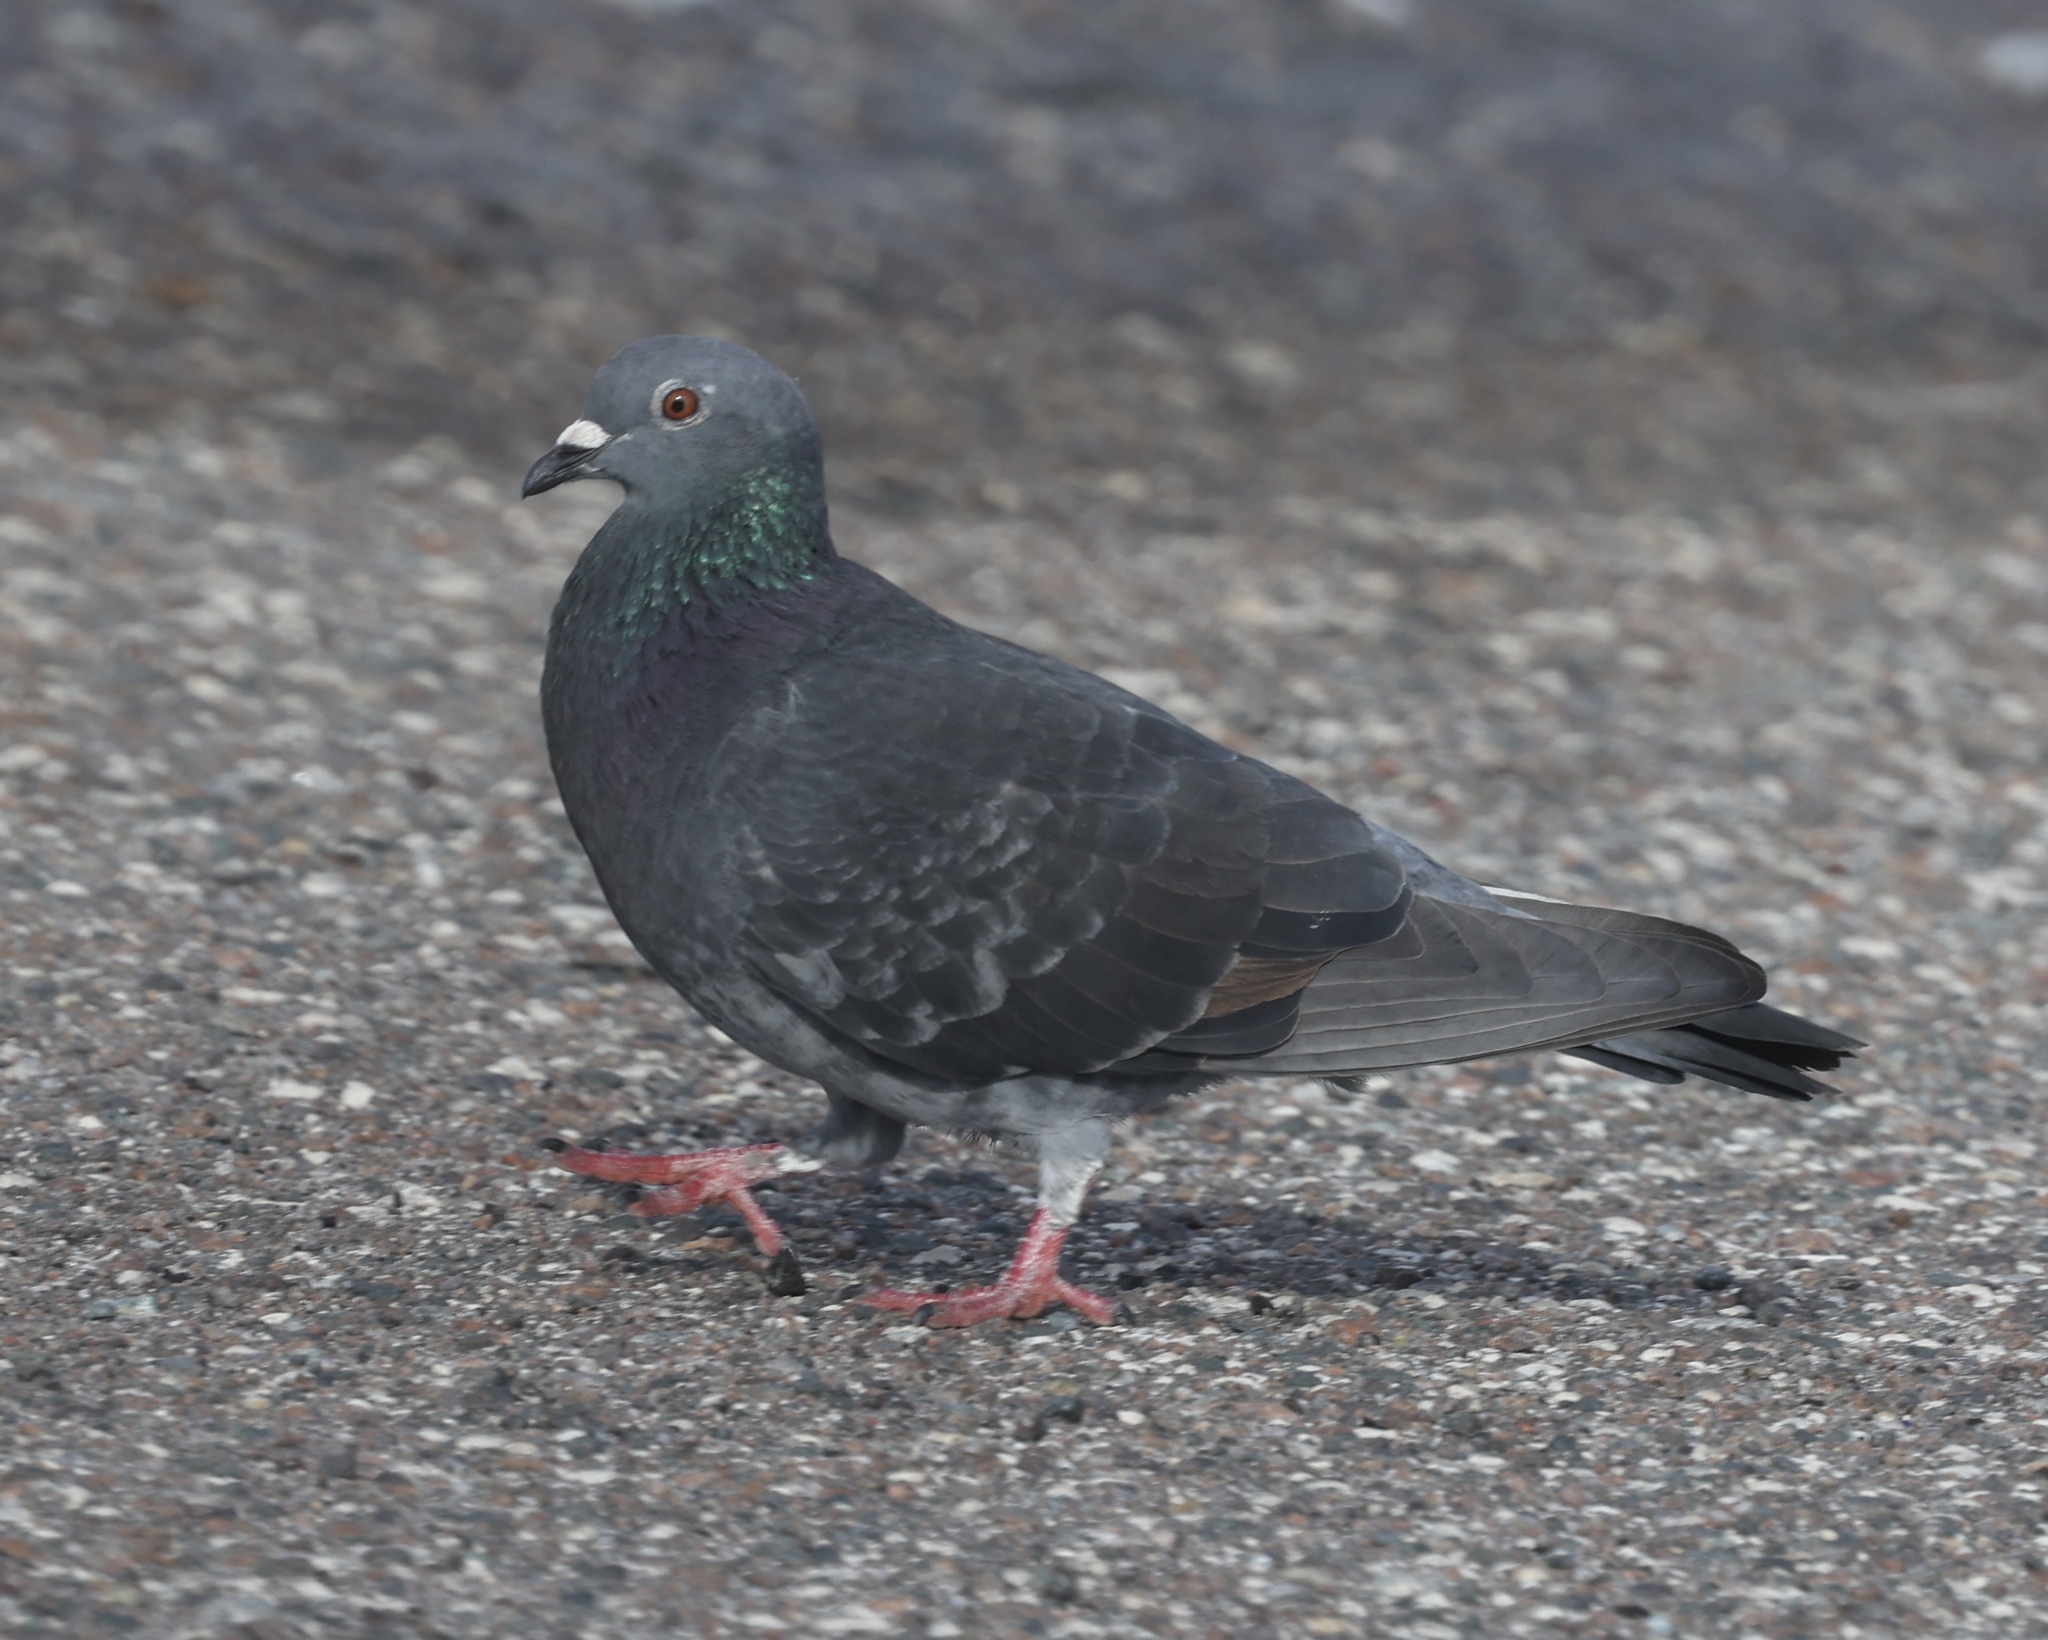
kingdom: Animalia
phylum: Chordata
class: Aves
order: Columbiformes
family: Columbidae
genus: Columba
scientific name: Columba livia
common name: Rock pigeon
